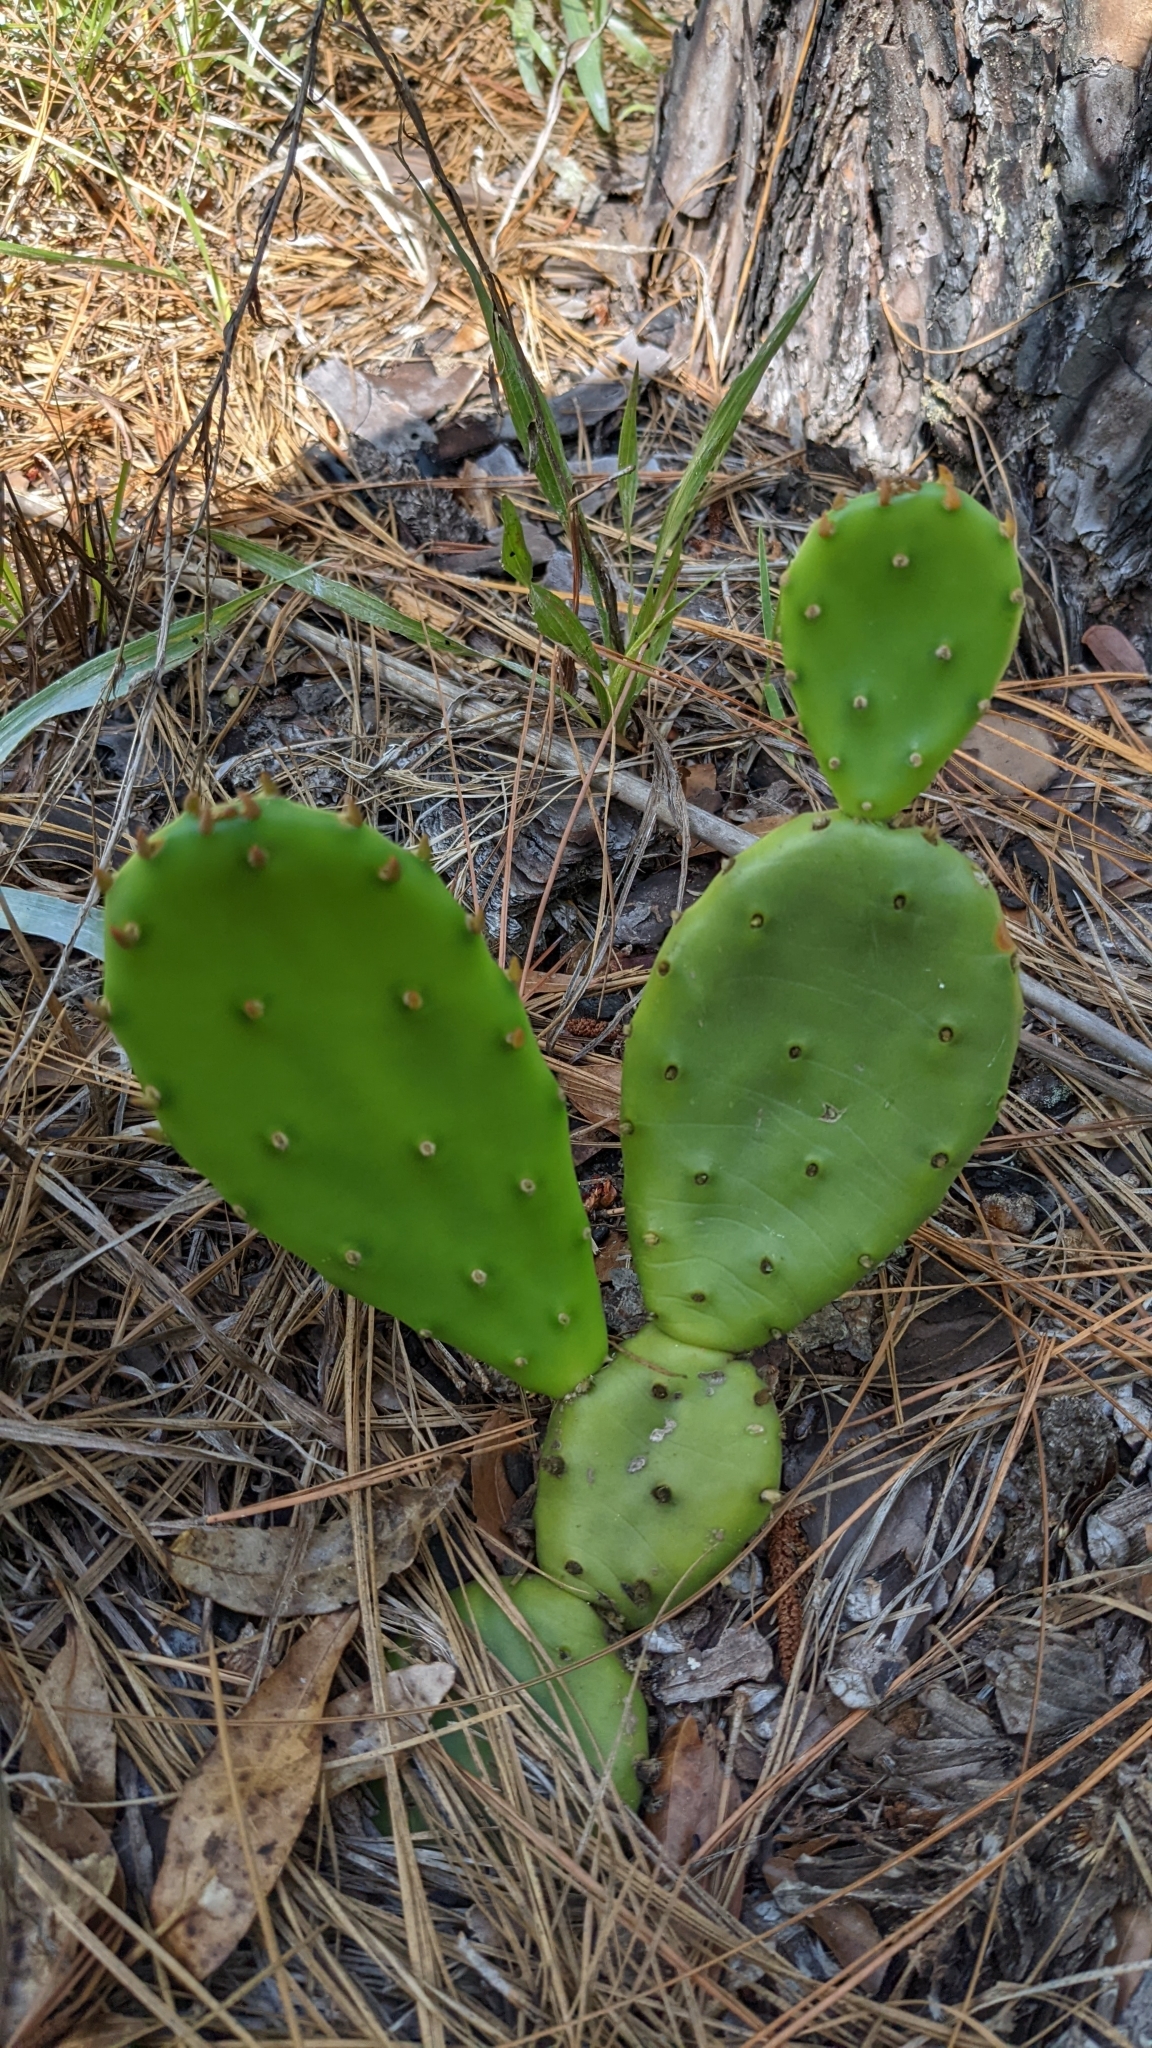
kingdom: Plantae
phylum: Tracheophyta
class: Magnoliopsida
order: Caryophyllales
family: Cactaceae
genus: Opuntia
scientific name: Opuntia mesacantha
